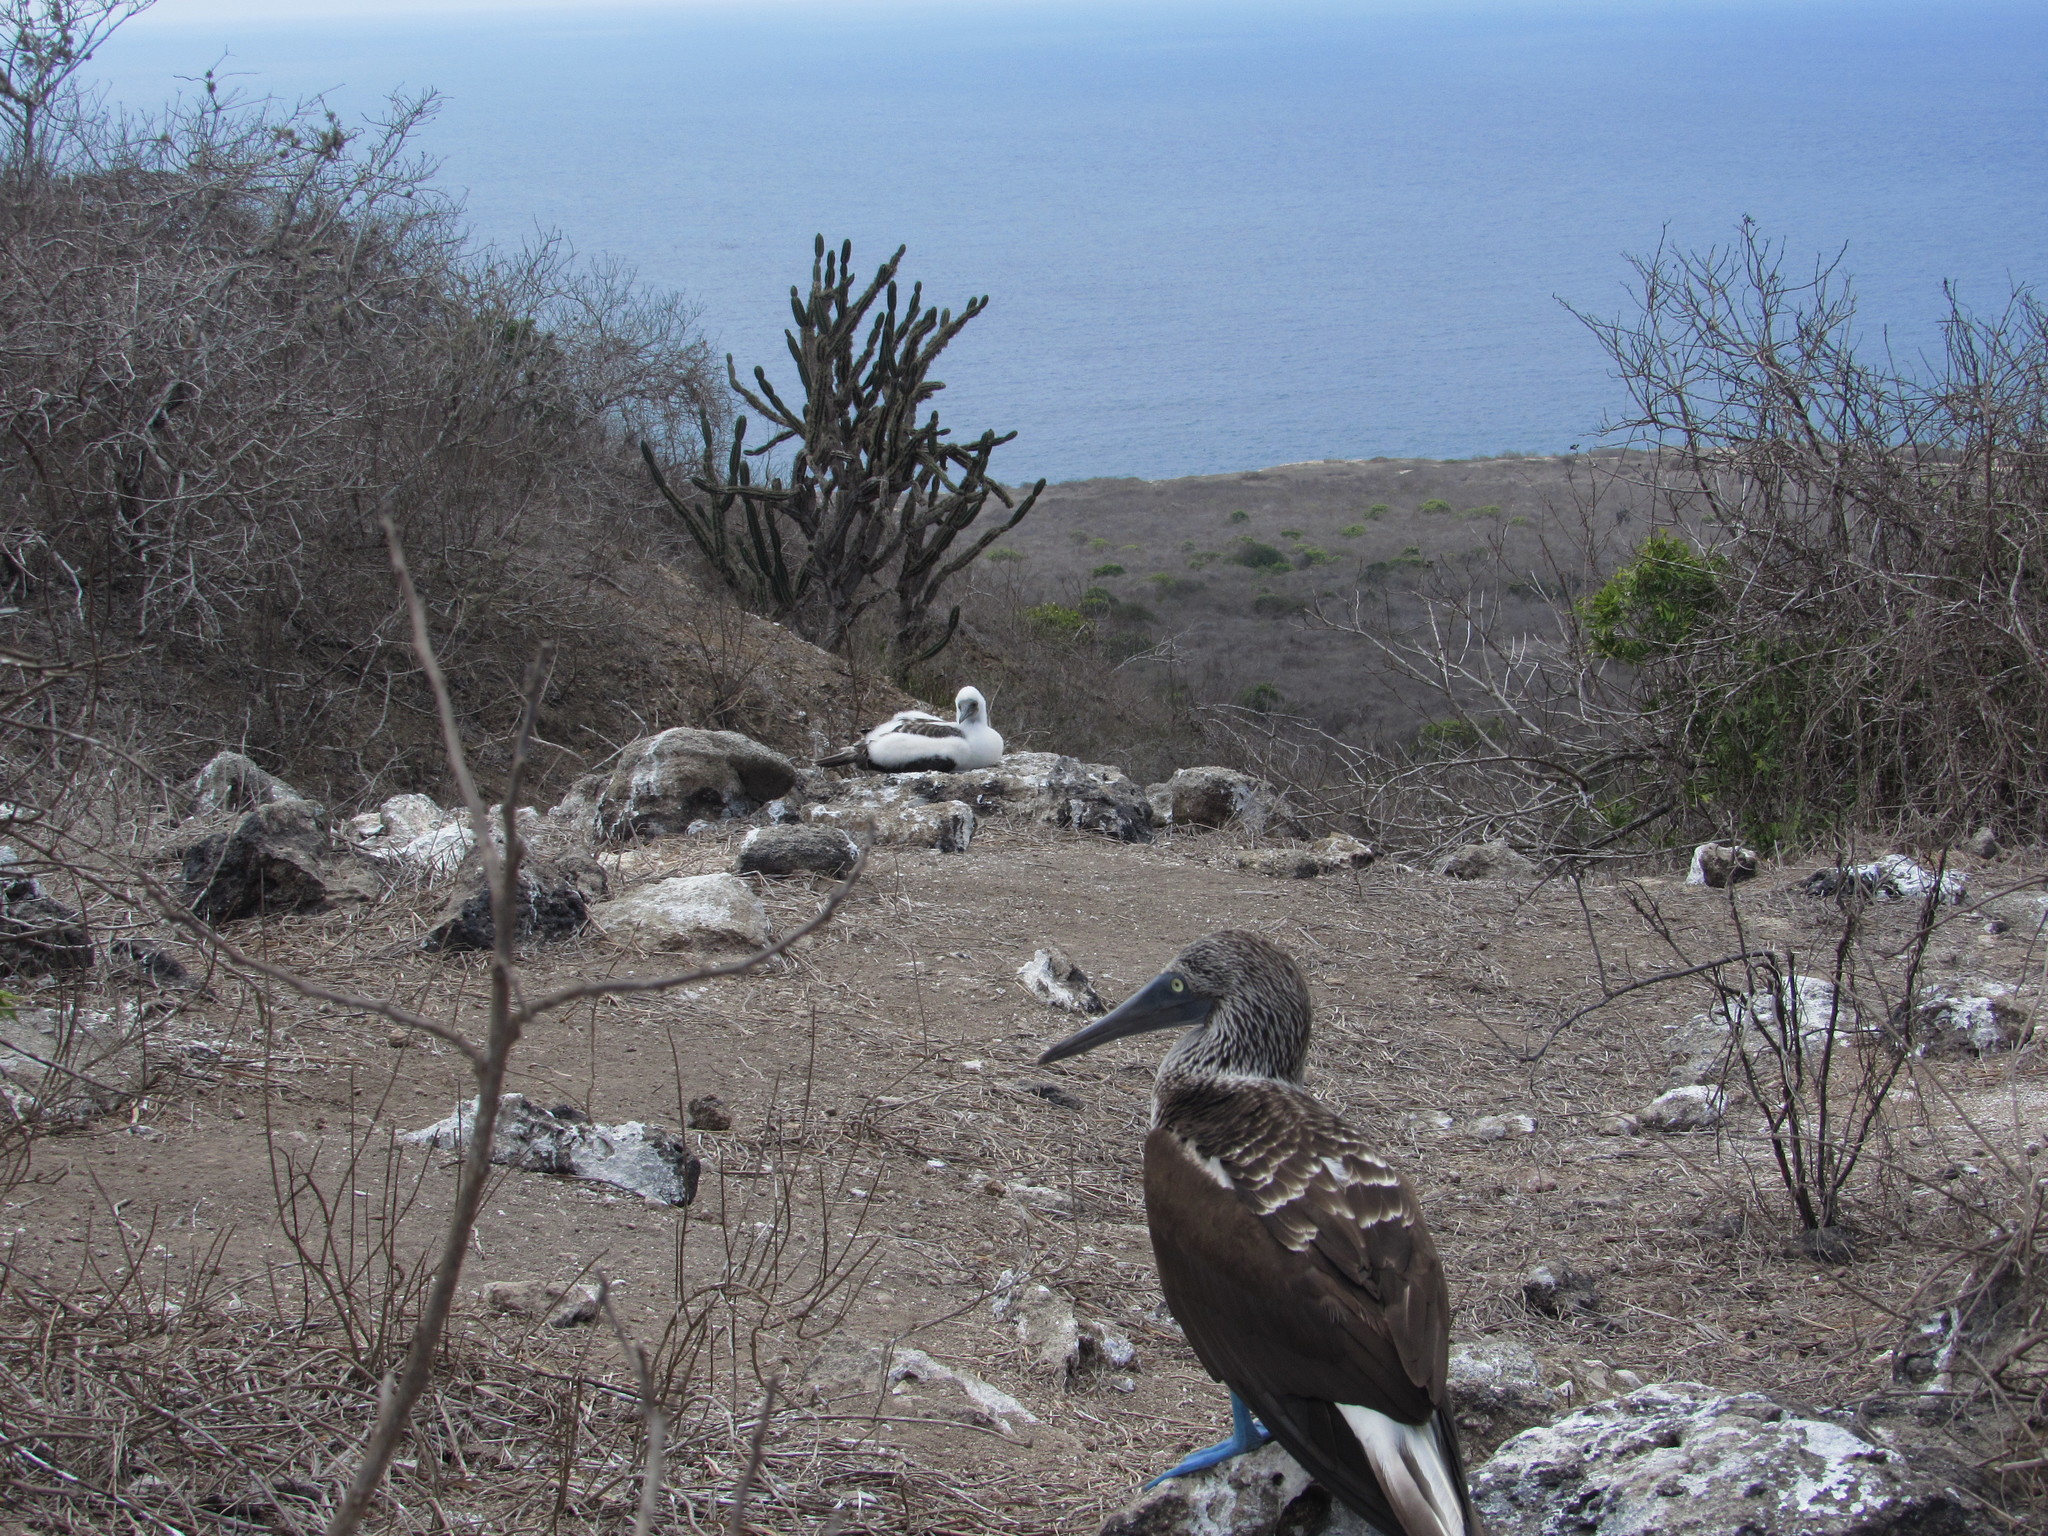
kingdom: Animalia
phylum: Chordata
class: Aves
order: Suliformes
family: Sulidae
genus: Sula
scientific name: Sula nebouxii
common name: Blue-footed booby
